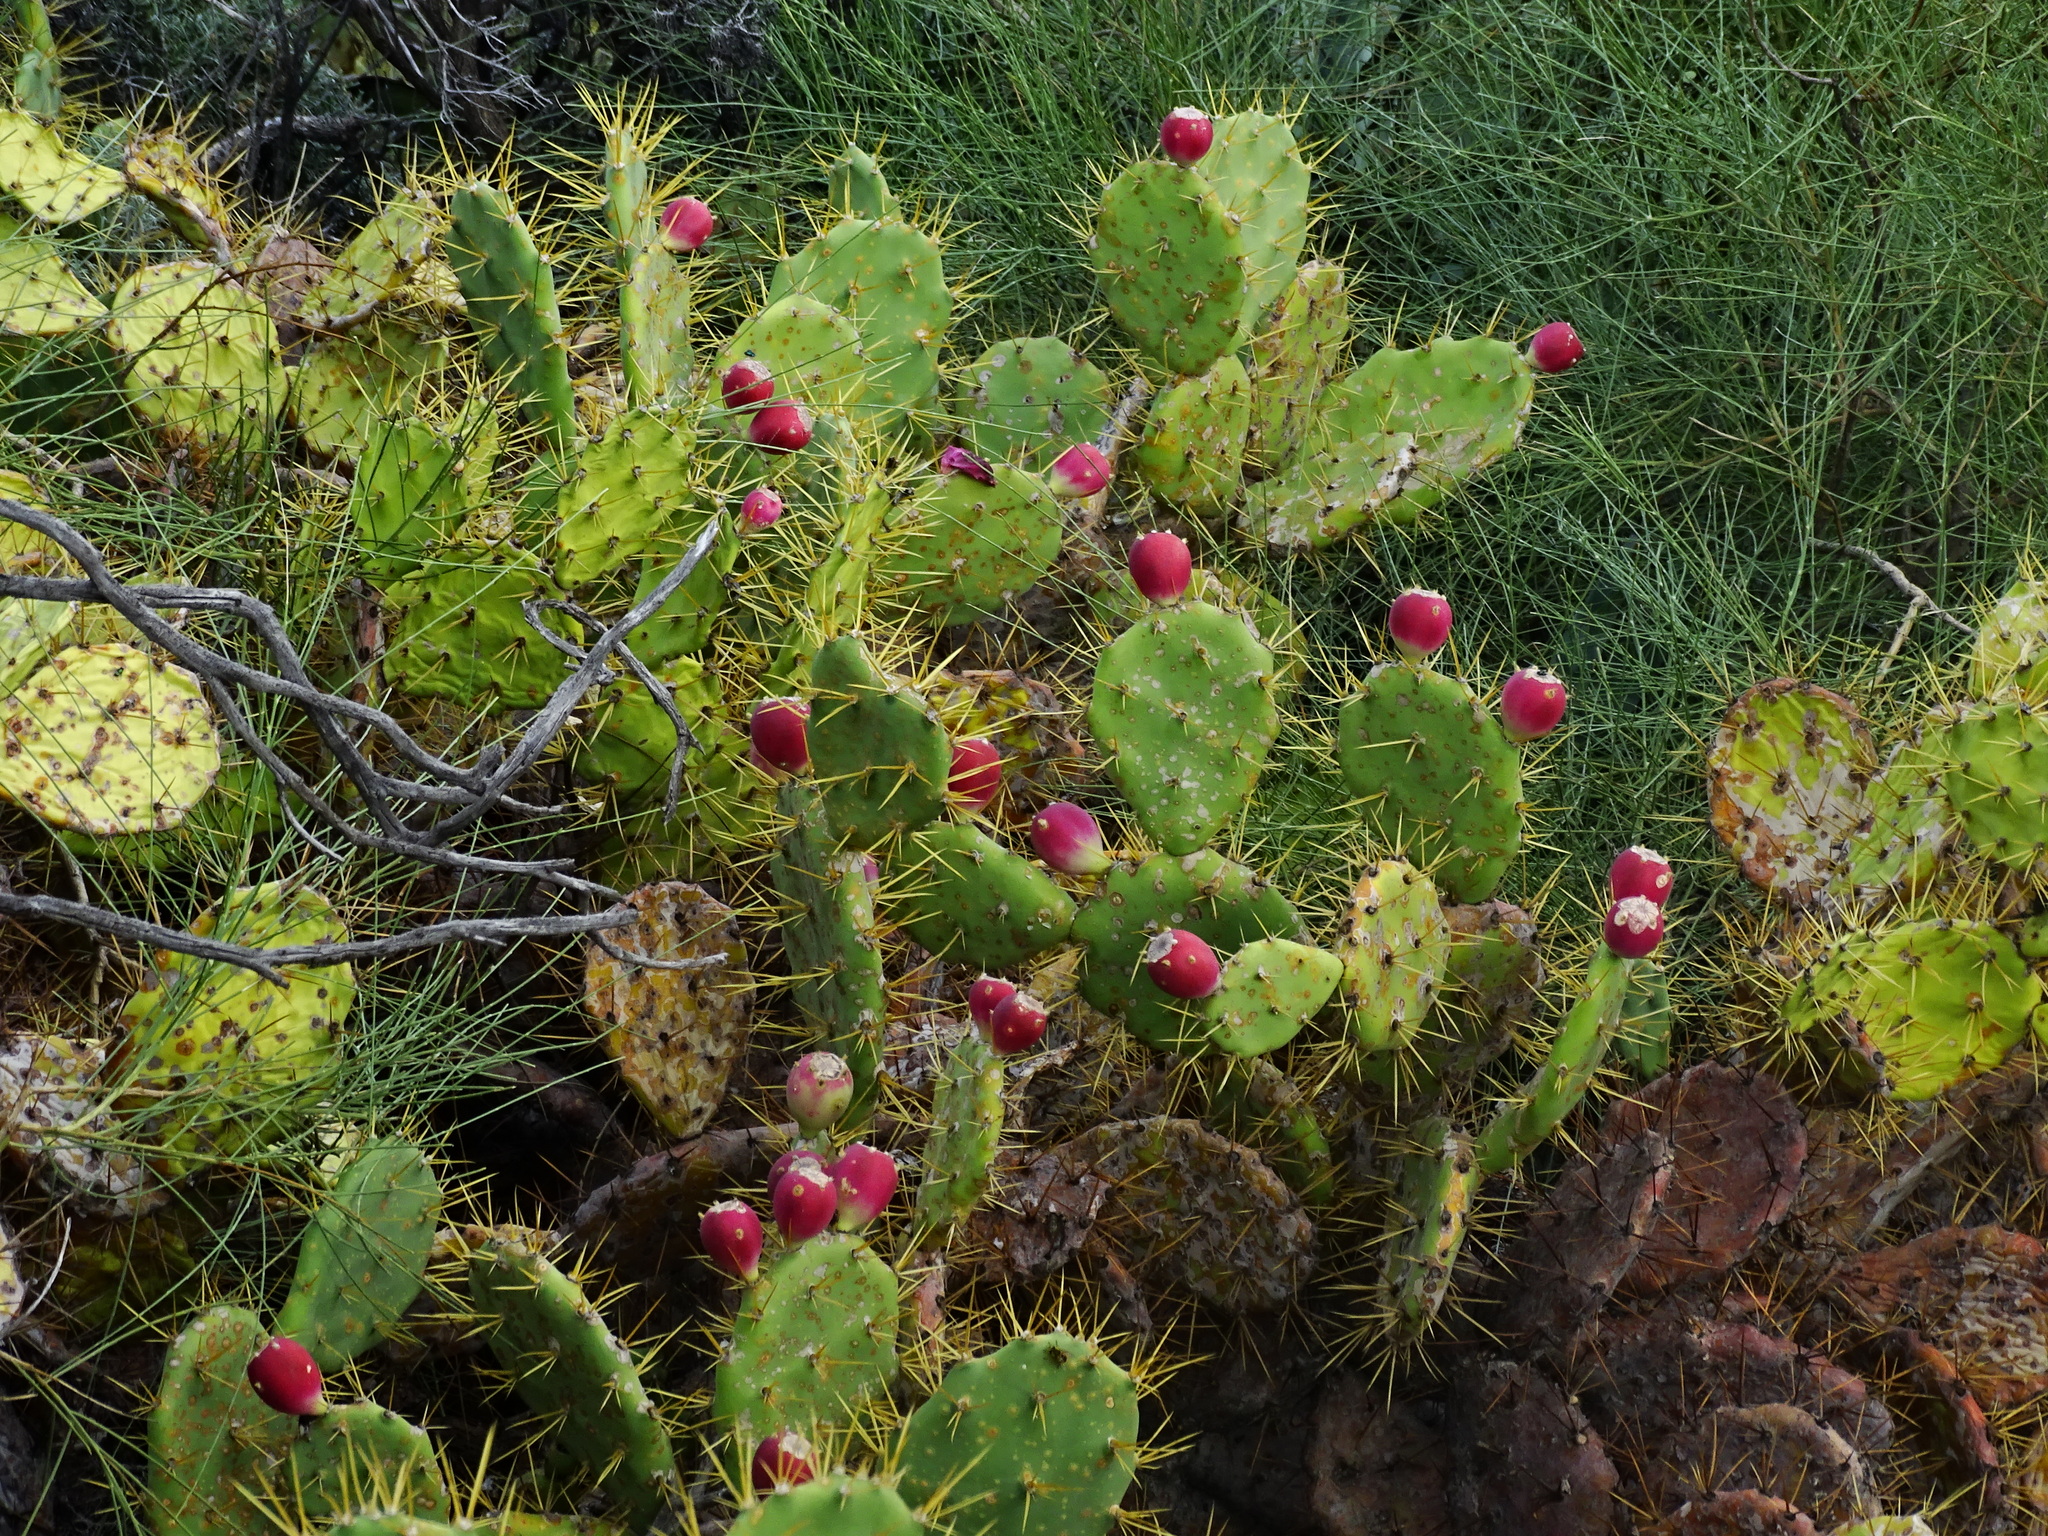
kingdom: Plantae
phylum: Tracheophyta
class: Magnoliopsida
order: Caryophyllales
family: Cactaceae
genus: Opuntia
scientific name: Opuntia stricta
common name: Erect pricklypear
